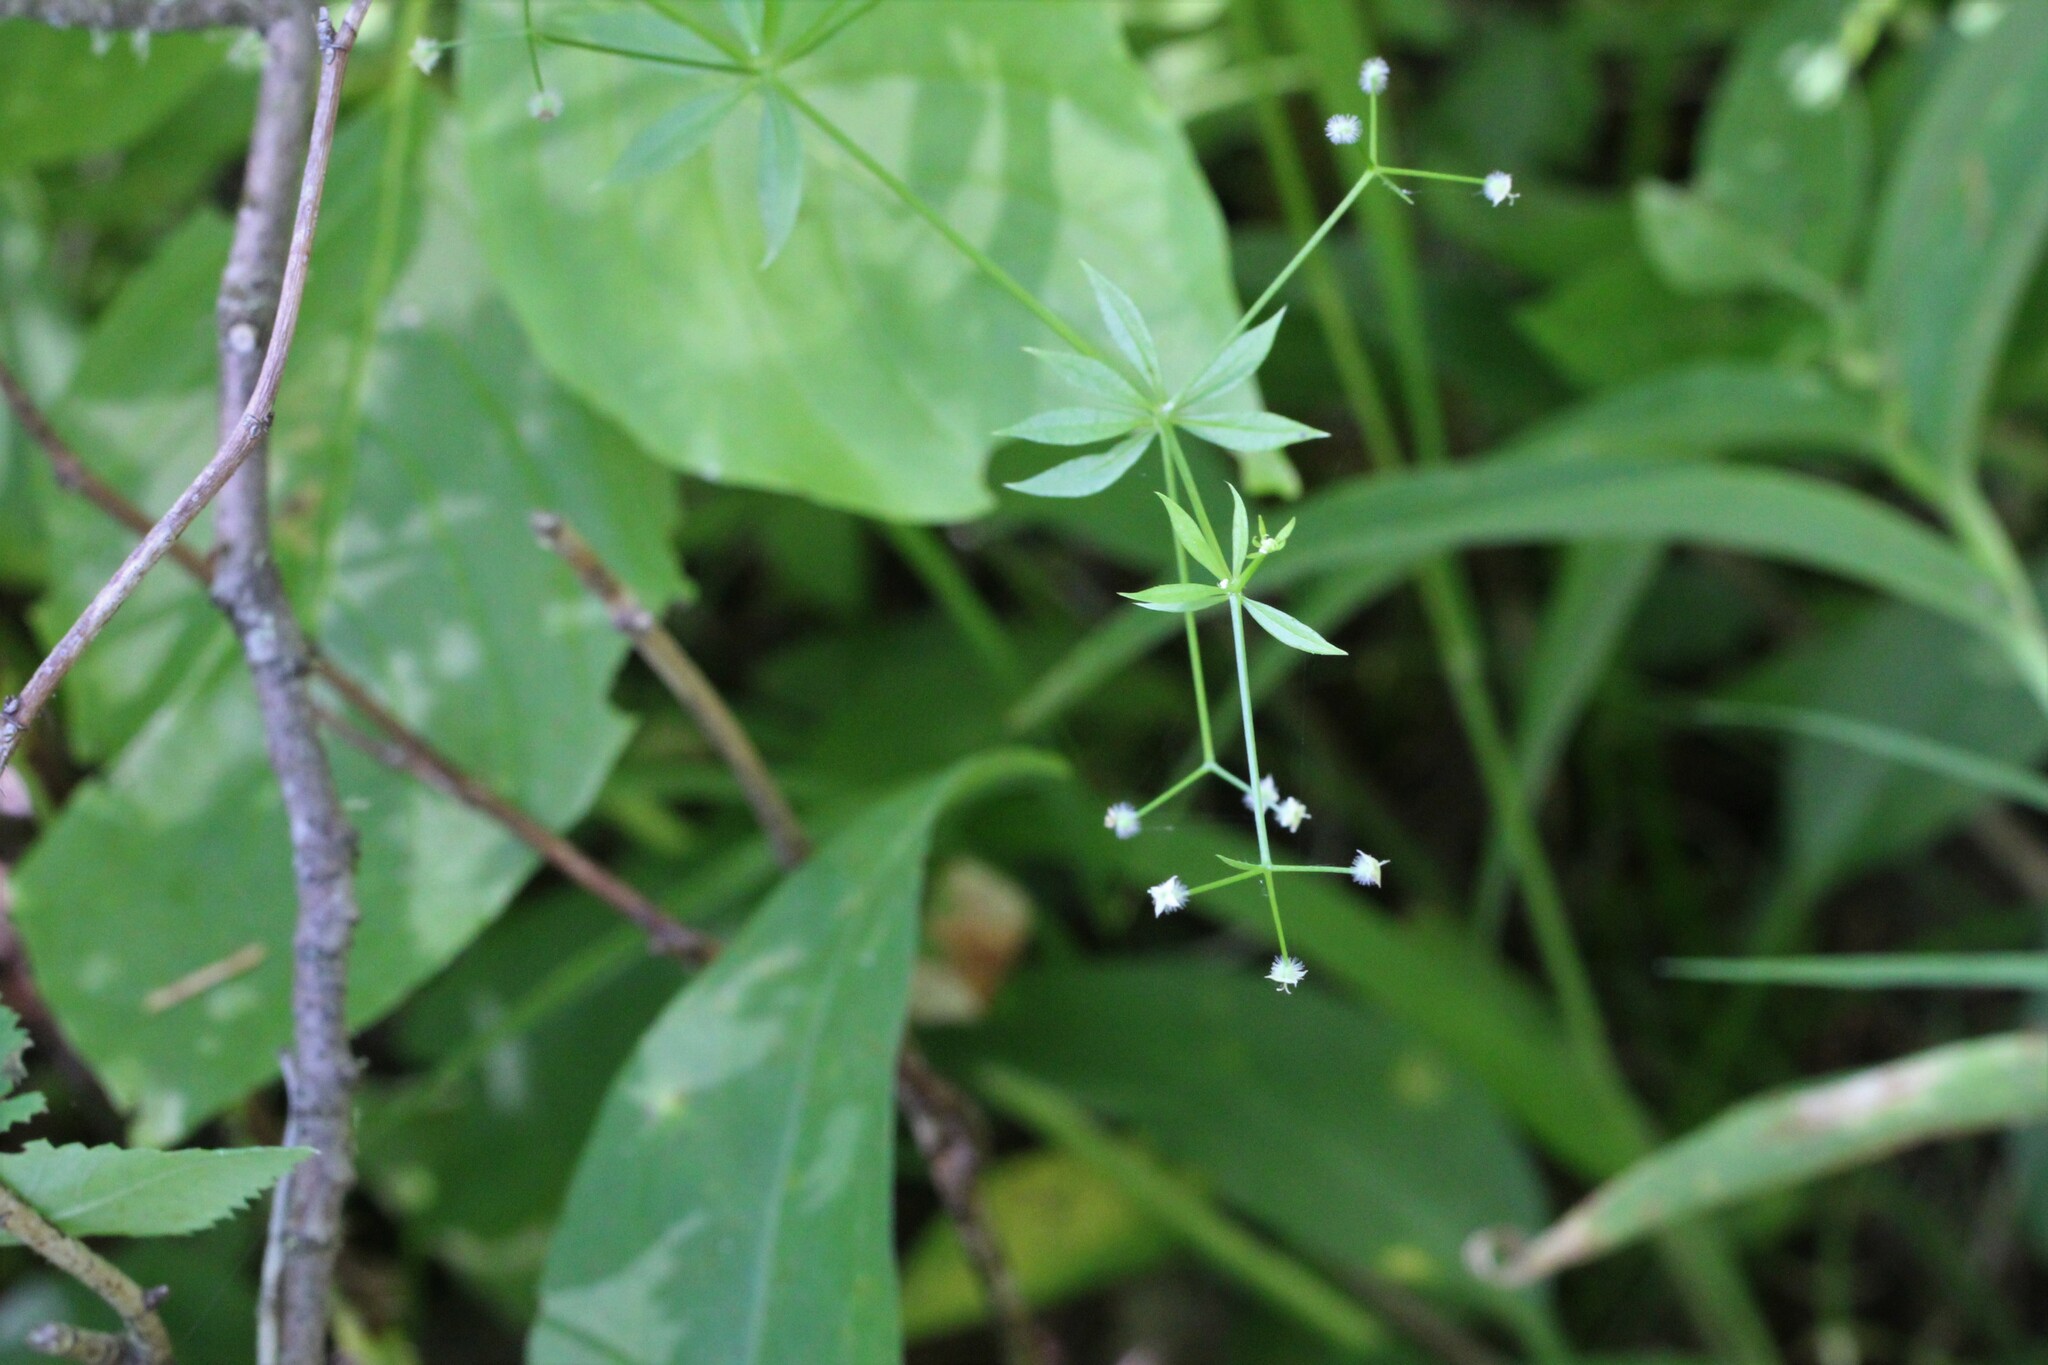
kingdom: Plantae
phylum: Tracheophyta
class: Magnoliopsida
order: Gentianales
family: Rubiaceae
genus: Galium
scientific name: Galium triflorum
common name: Fragrant bedstraw
